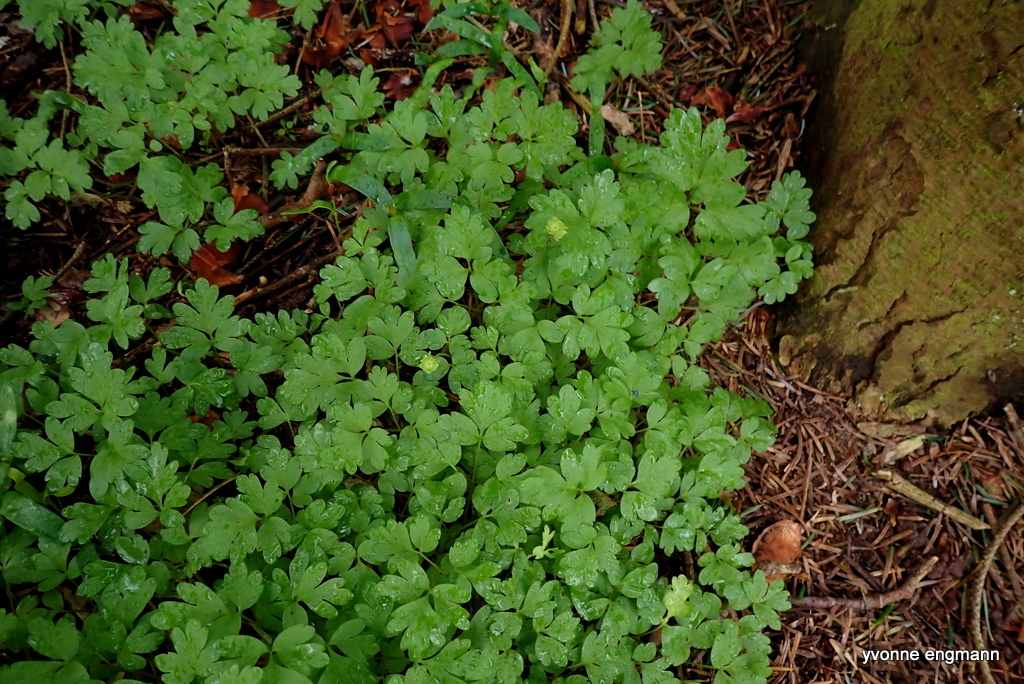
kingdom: Plantae
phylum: Tracheophyta
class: Magnoliopsida
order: Dipsacales
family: Viburnaceae
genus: Adoxa
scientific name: Adoxa moschatellina
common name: Moschatel
